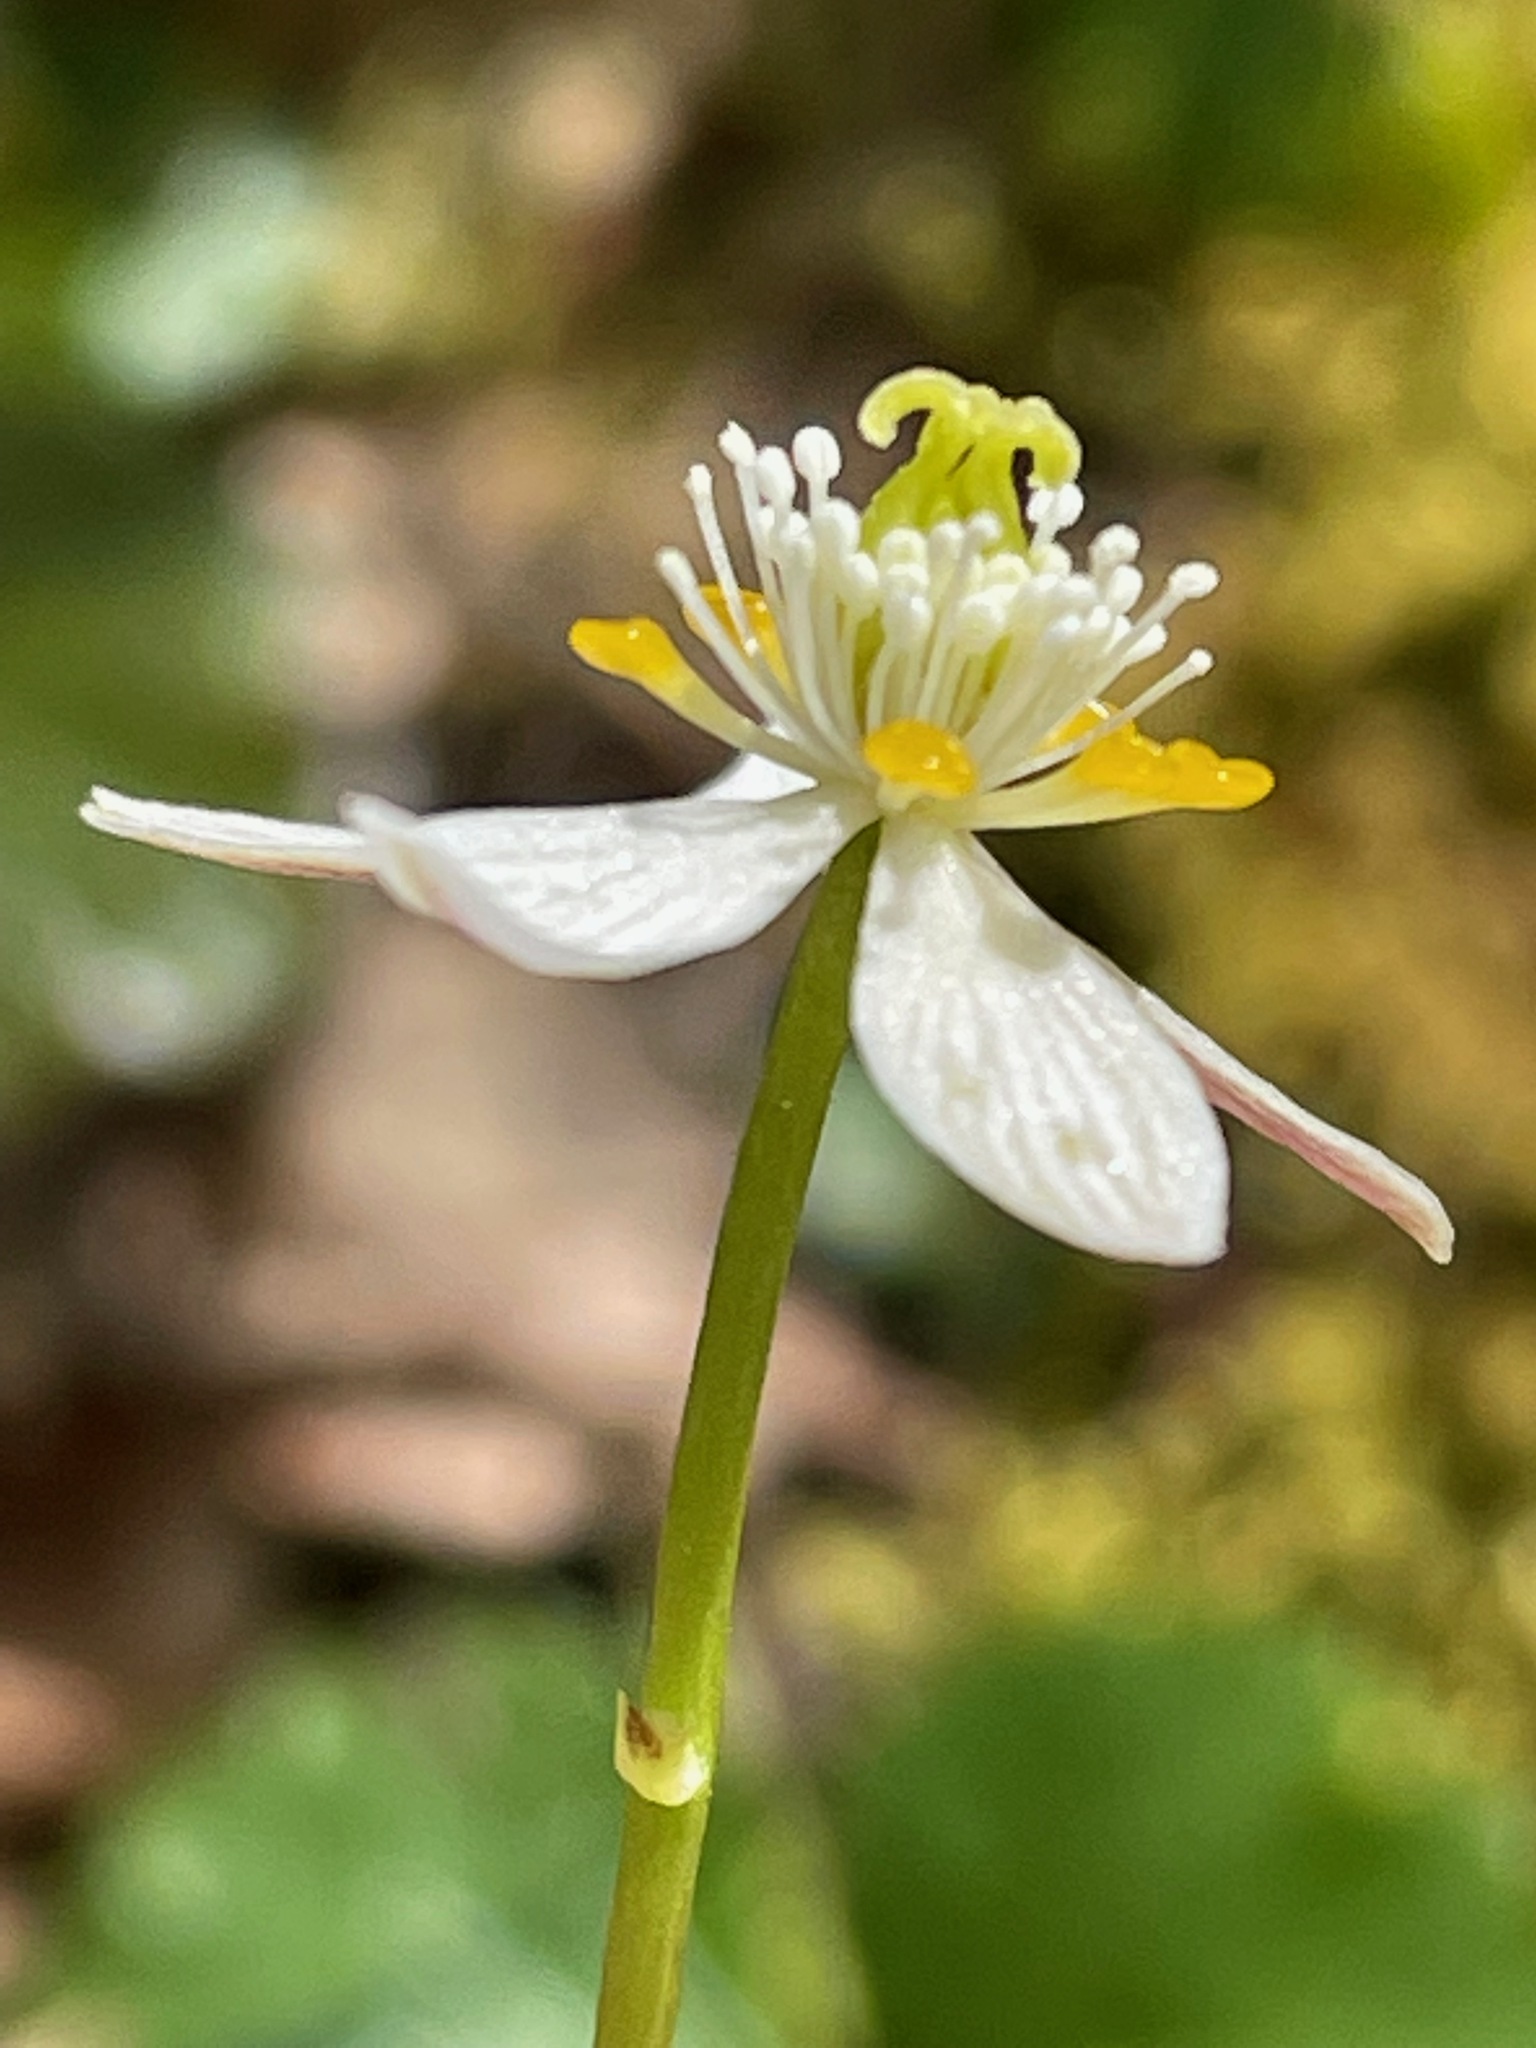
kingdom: Plantae
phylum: Tracheophyta
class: Magnoliopsida
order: Ranunculales
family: Ranunculaceae
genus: Coptis
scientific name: Coptis trifolia
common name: Canker-root
